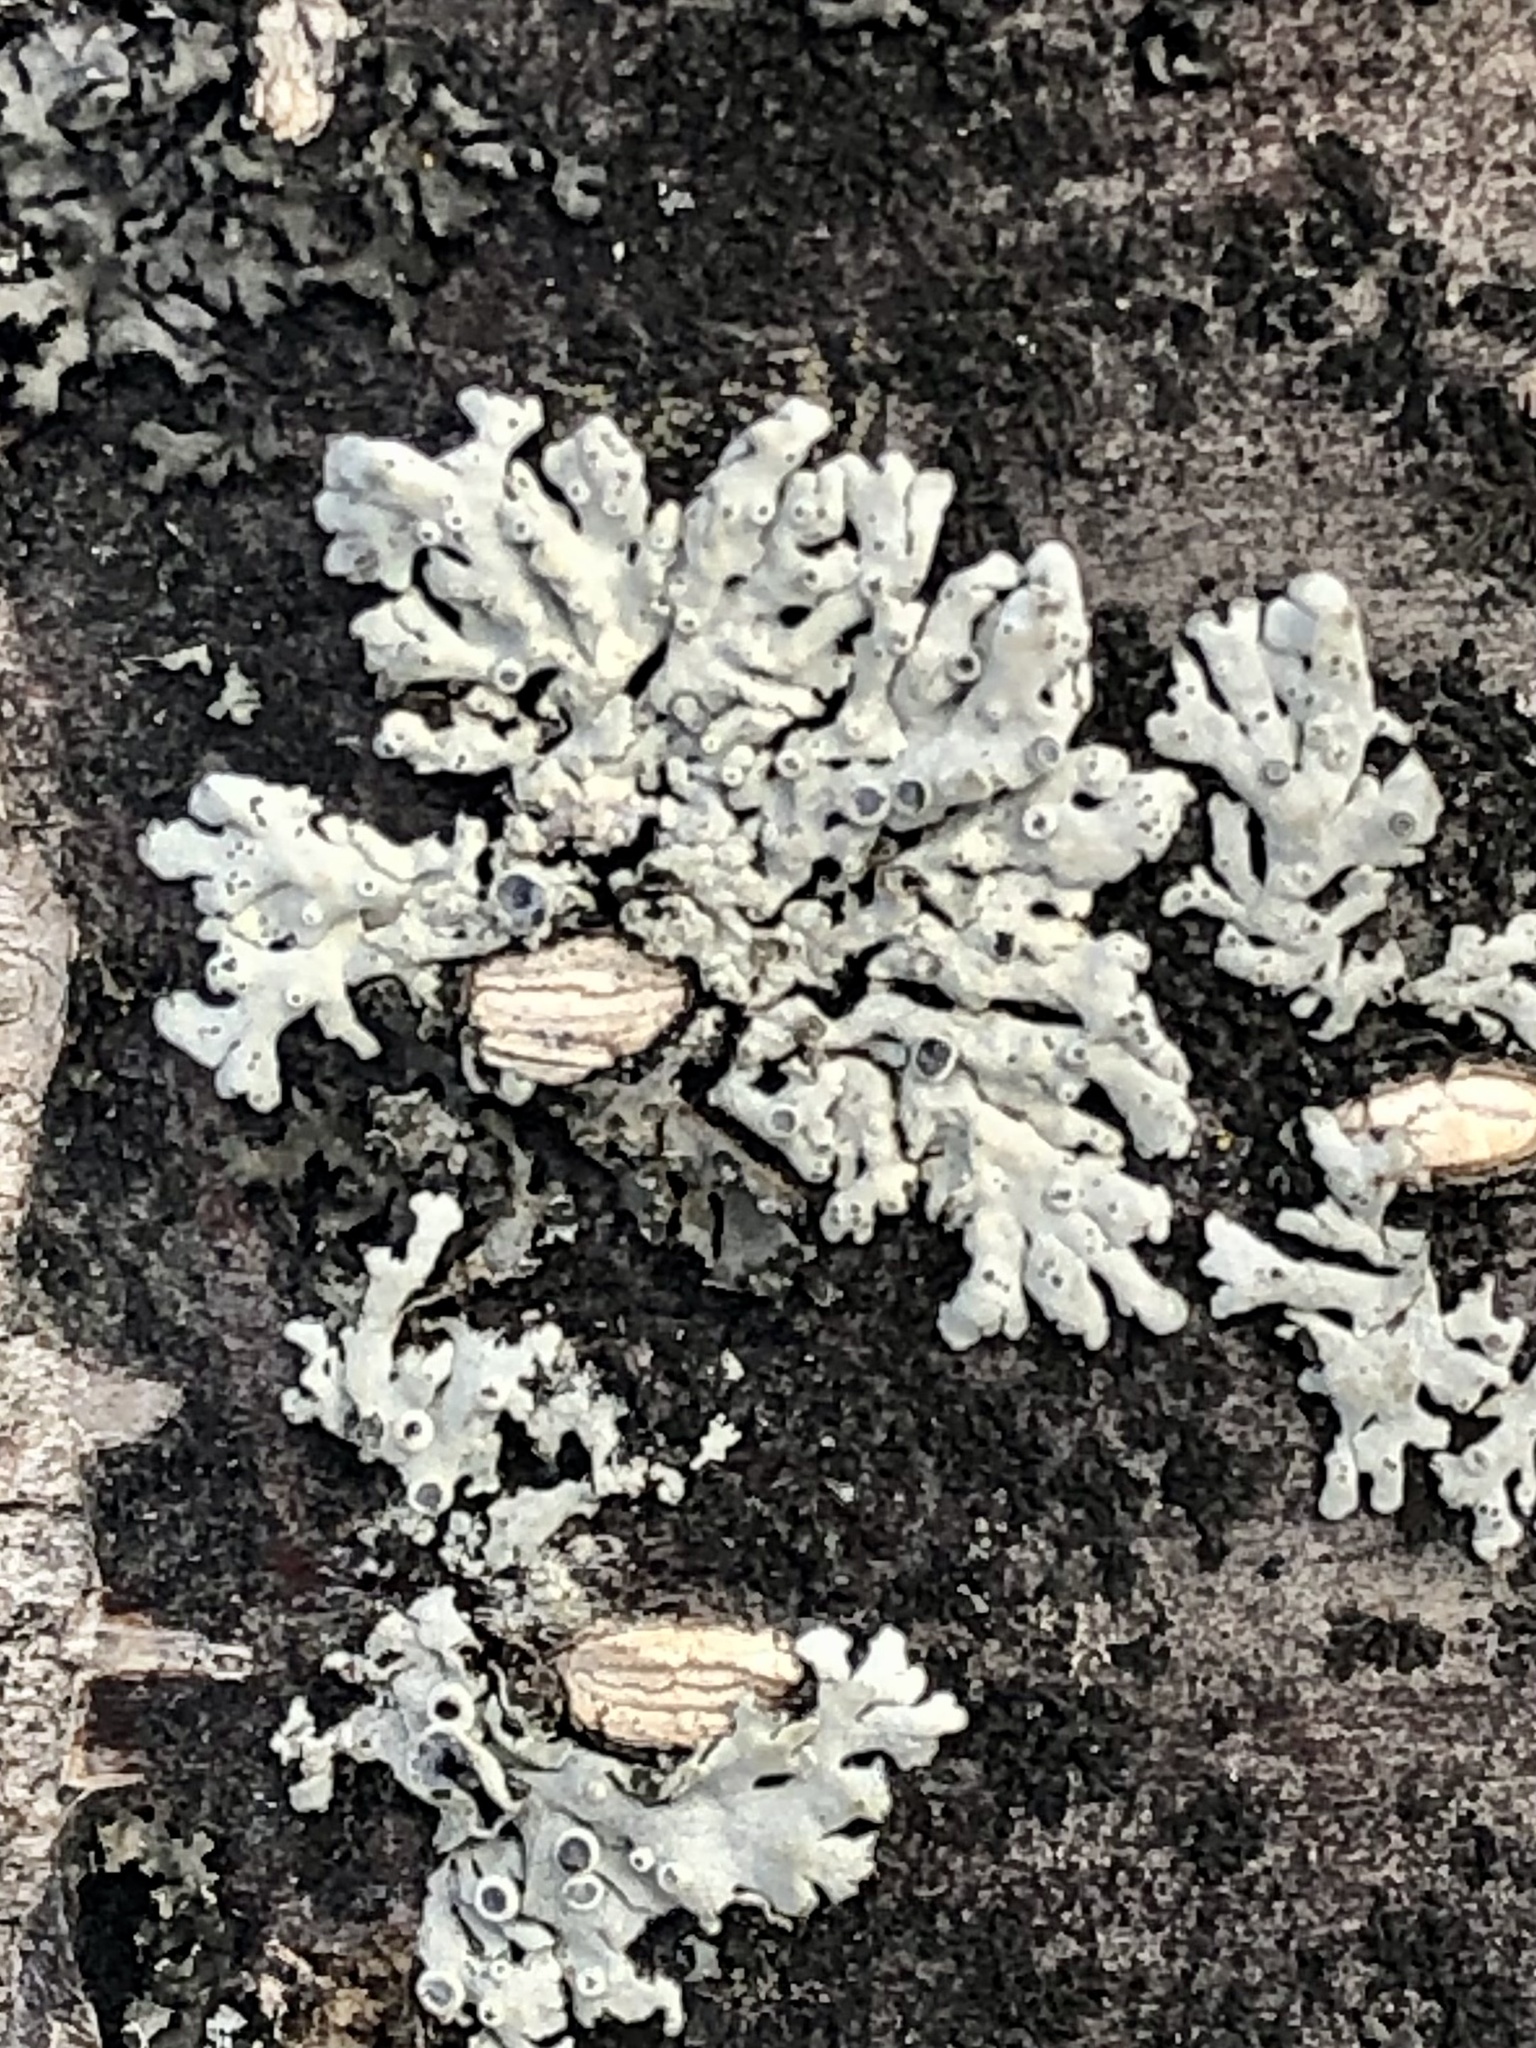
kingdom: Fungi
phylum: Ascomycota
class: Lecanoromycetes
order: Caliciales
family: Physciaceae
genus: Physcia
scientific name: Physcia stellaris
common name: Star rosette lichen
